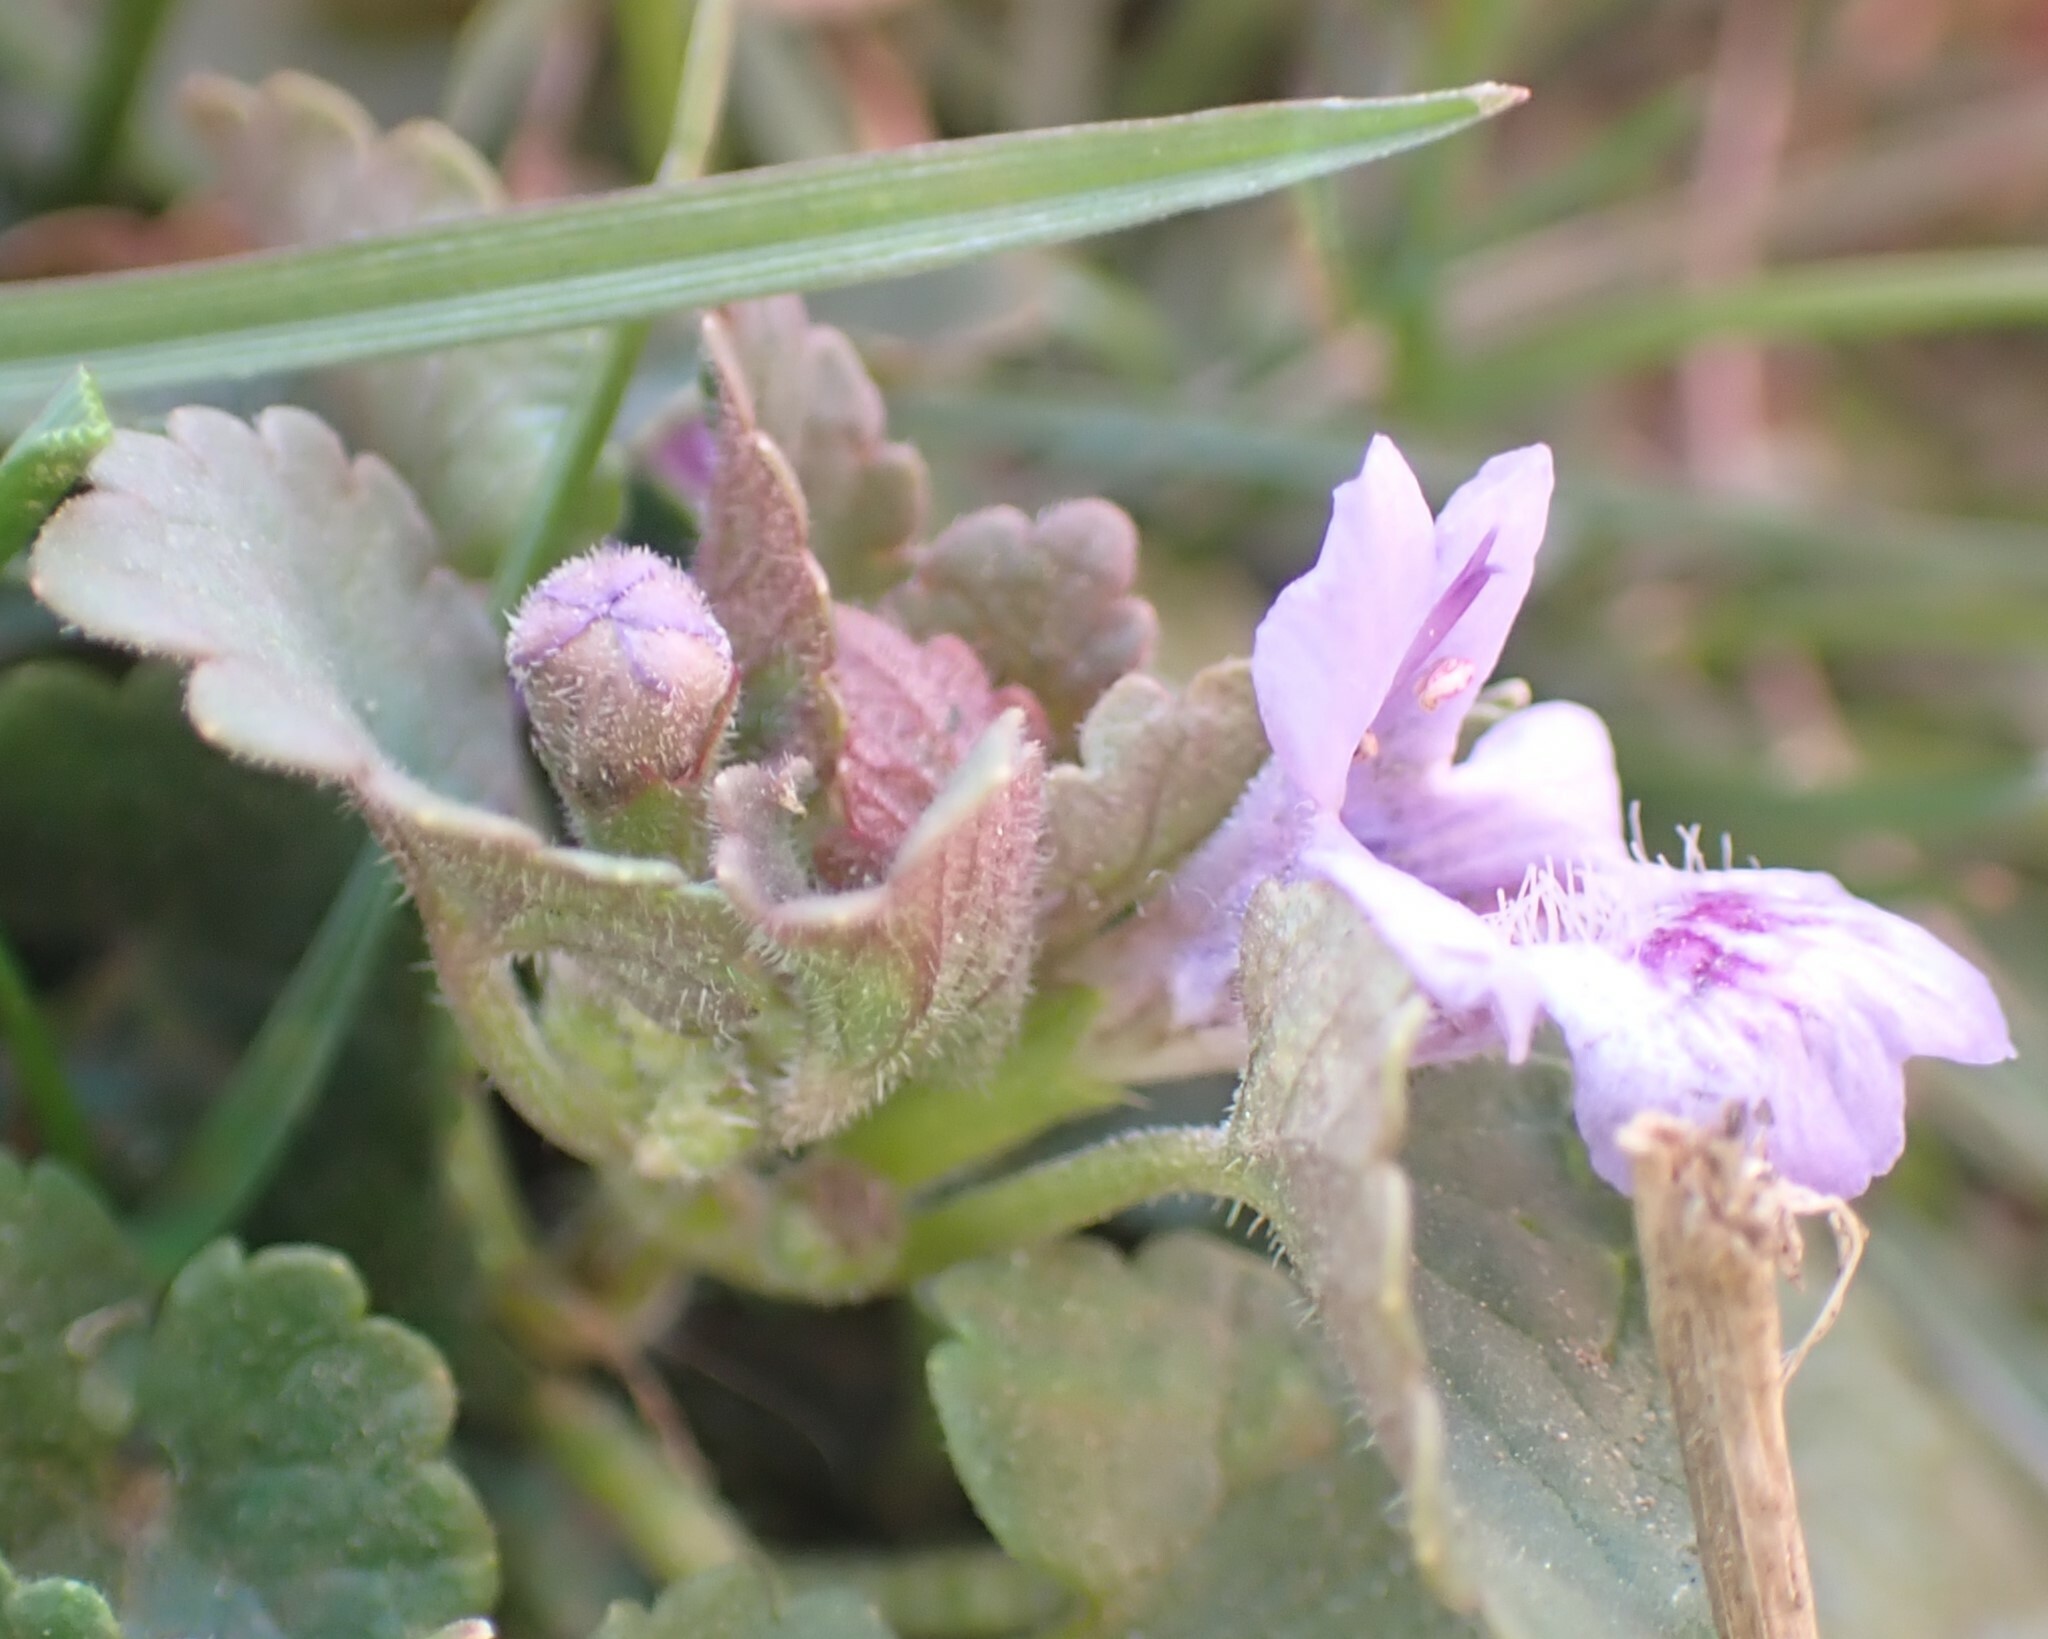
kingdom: Plantae
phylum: Tracheophyta
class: Magnoliopsida
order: Lamiales
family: Lamiaceae
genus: Glechoma
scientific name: Glechoma hederacea
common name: Ground ivy
